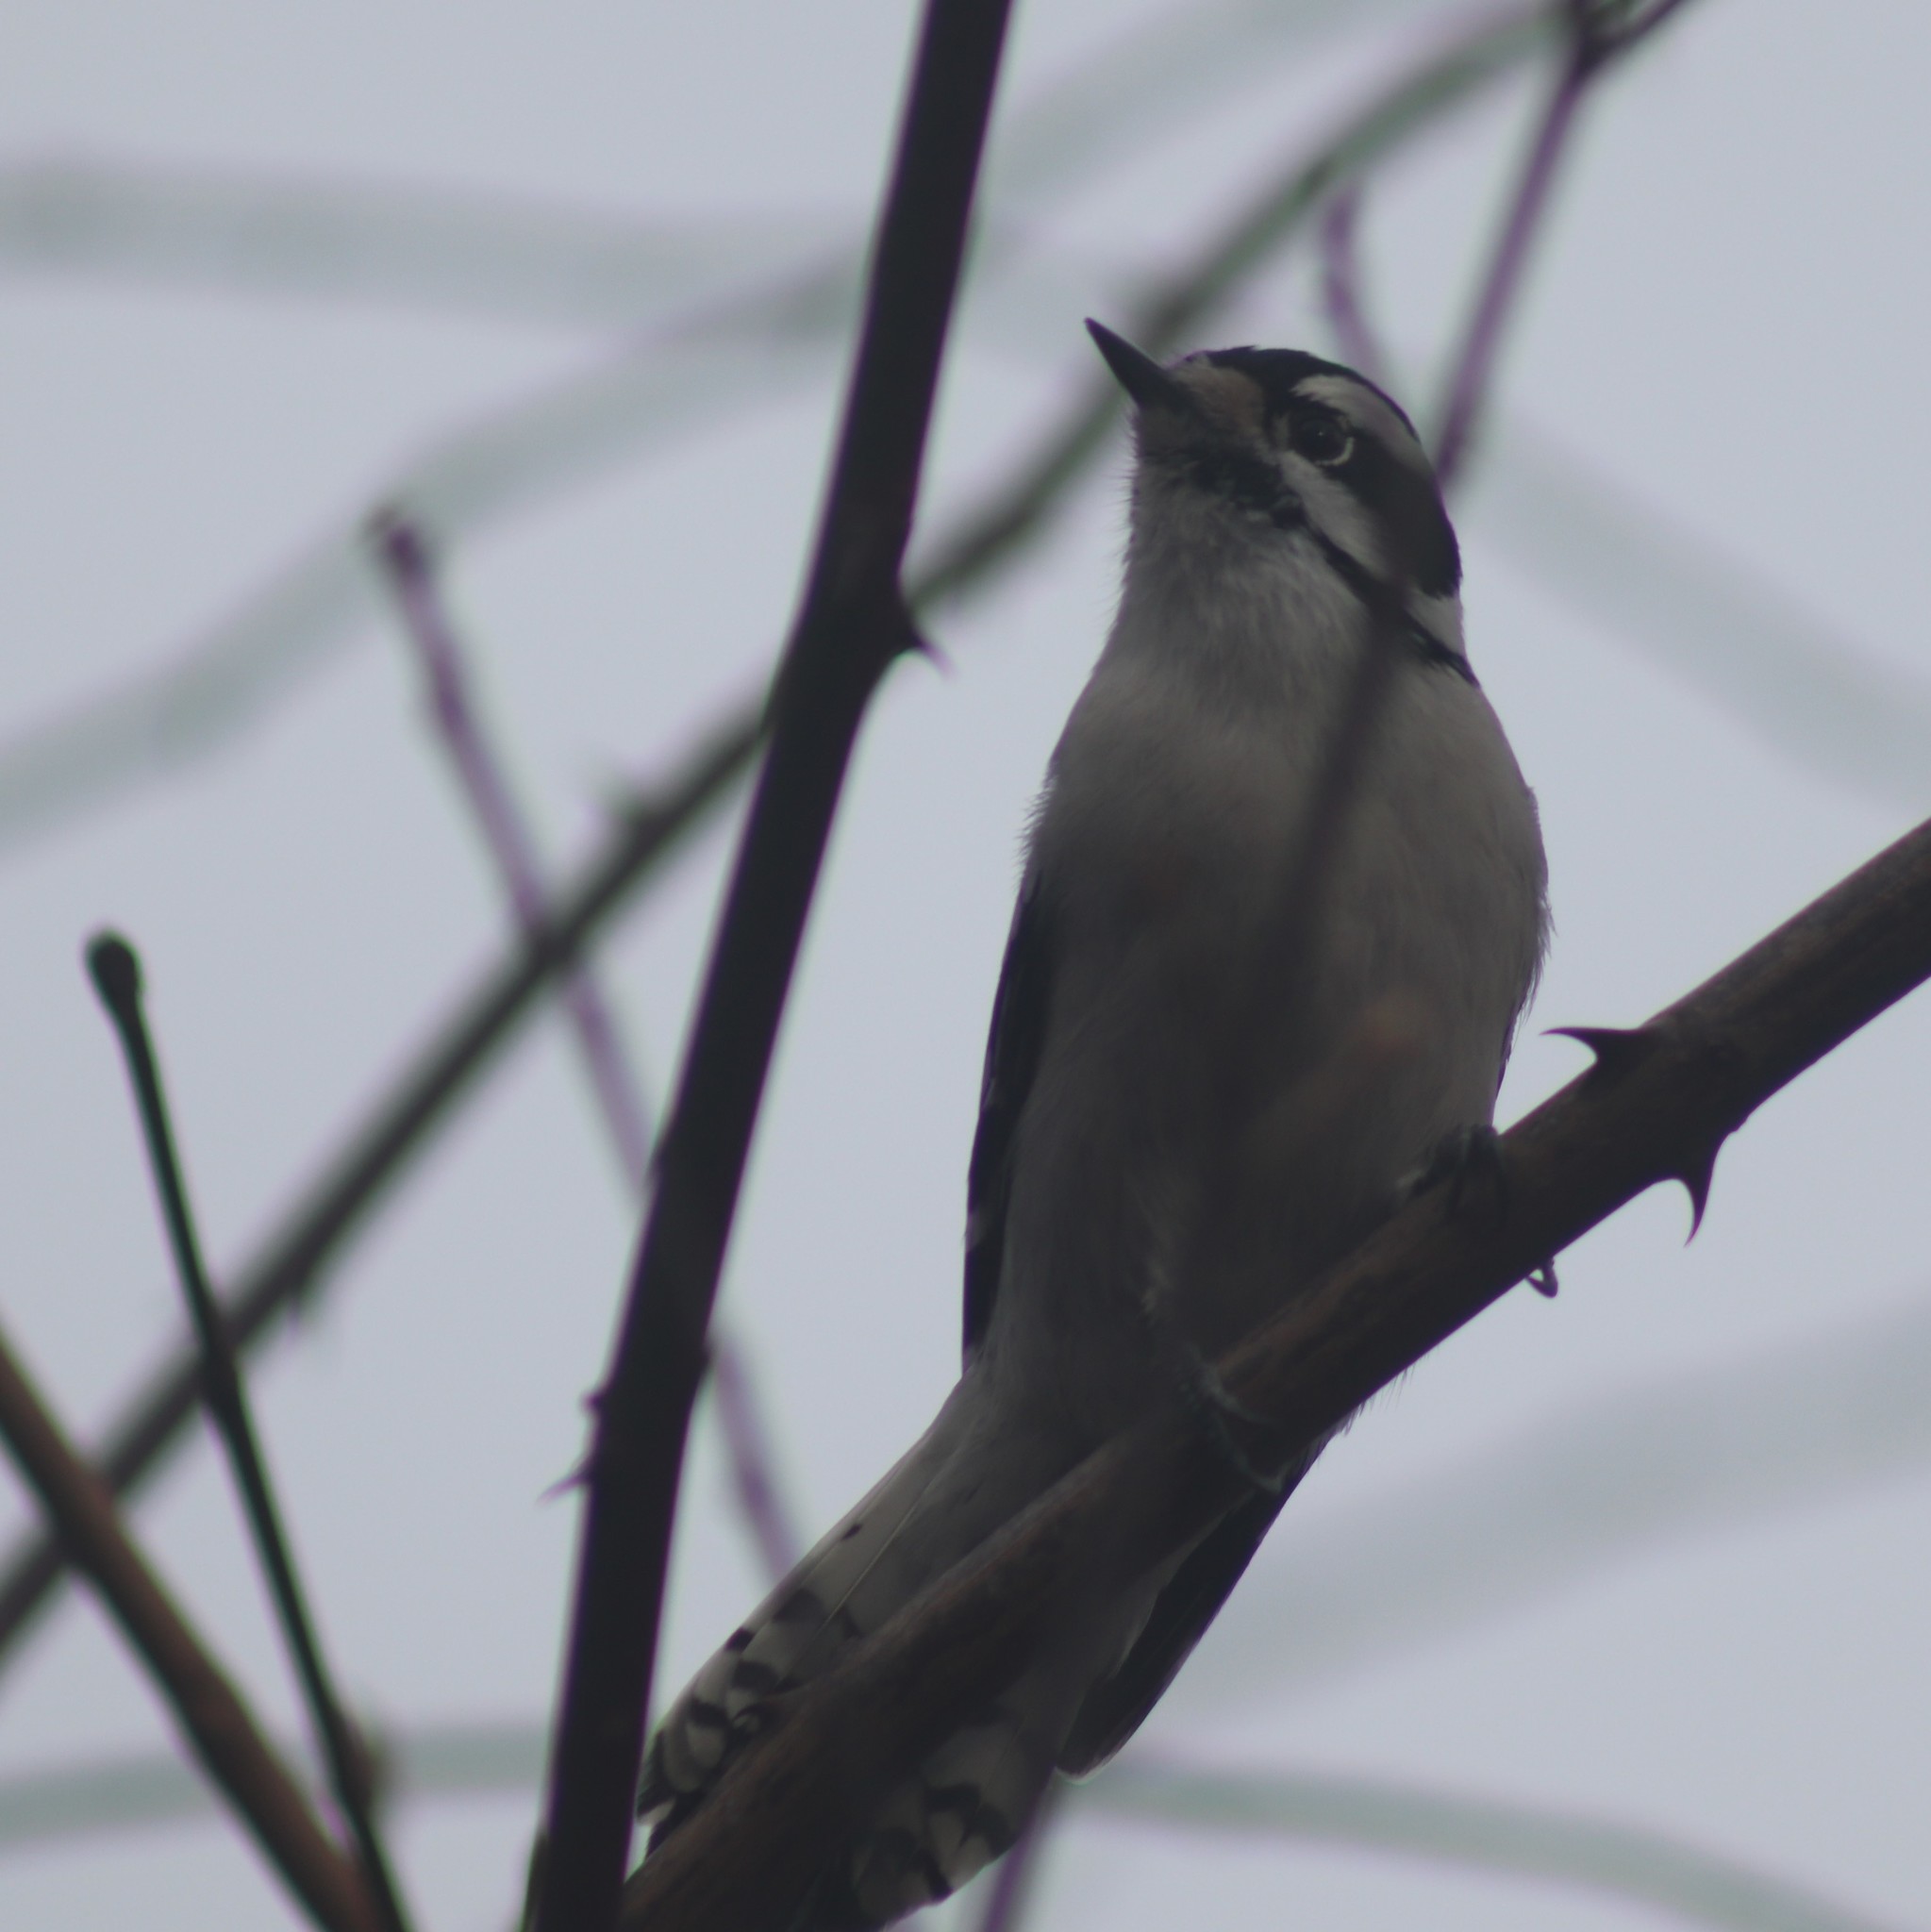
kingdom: Animalia
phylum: Chordata
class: Aves
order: Piciformes
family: Picidae
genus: Dryobates
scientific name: Dryobates pubescens
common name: Downy woodpecker
